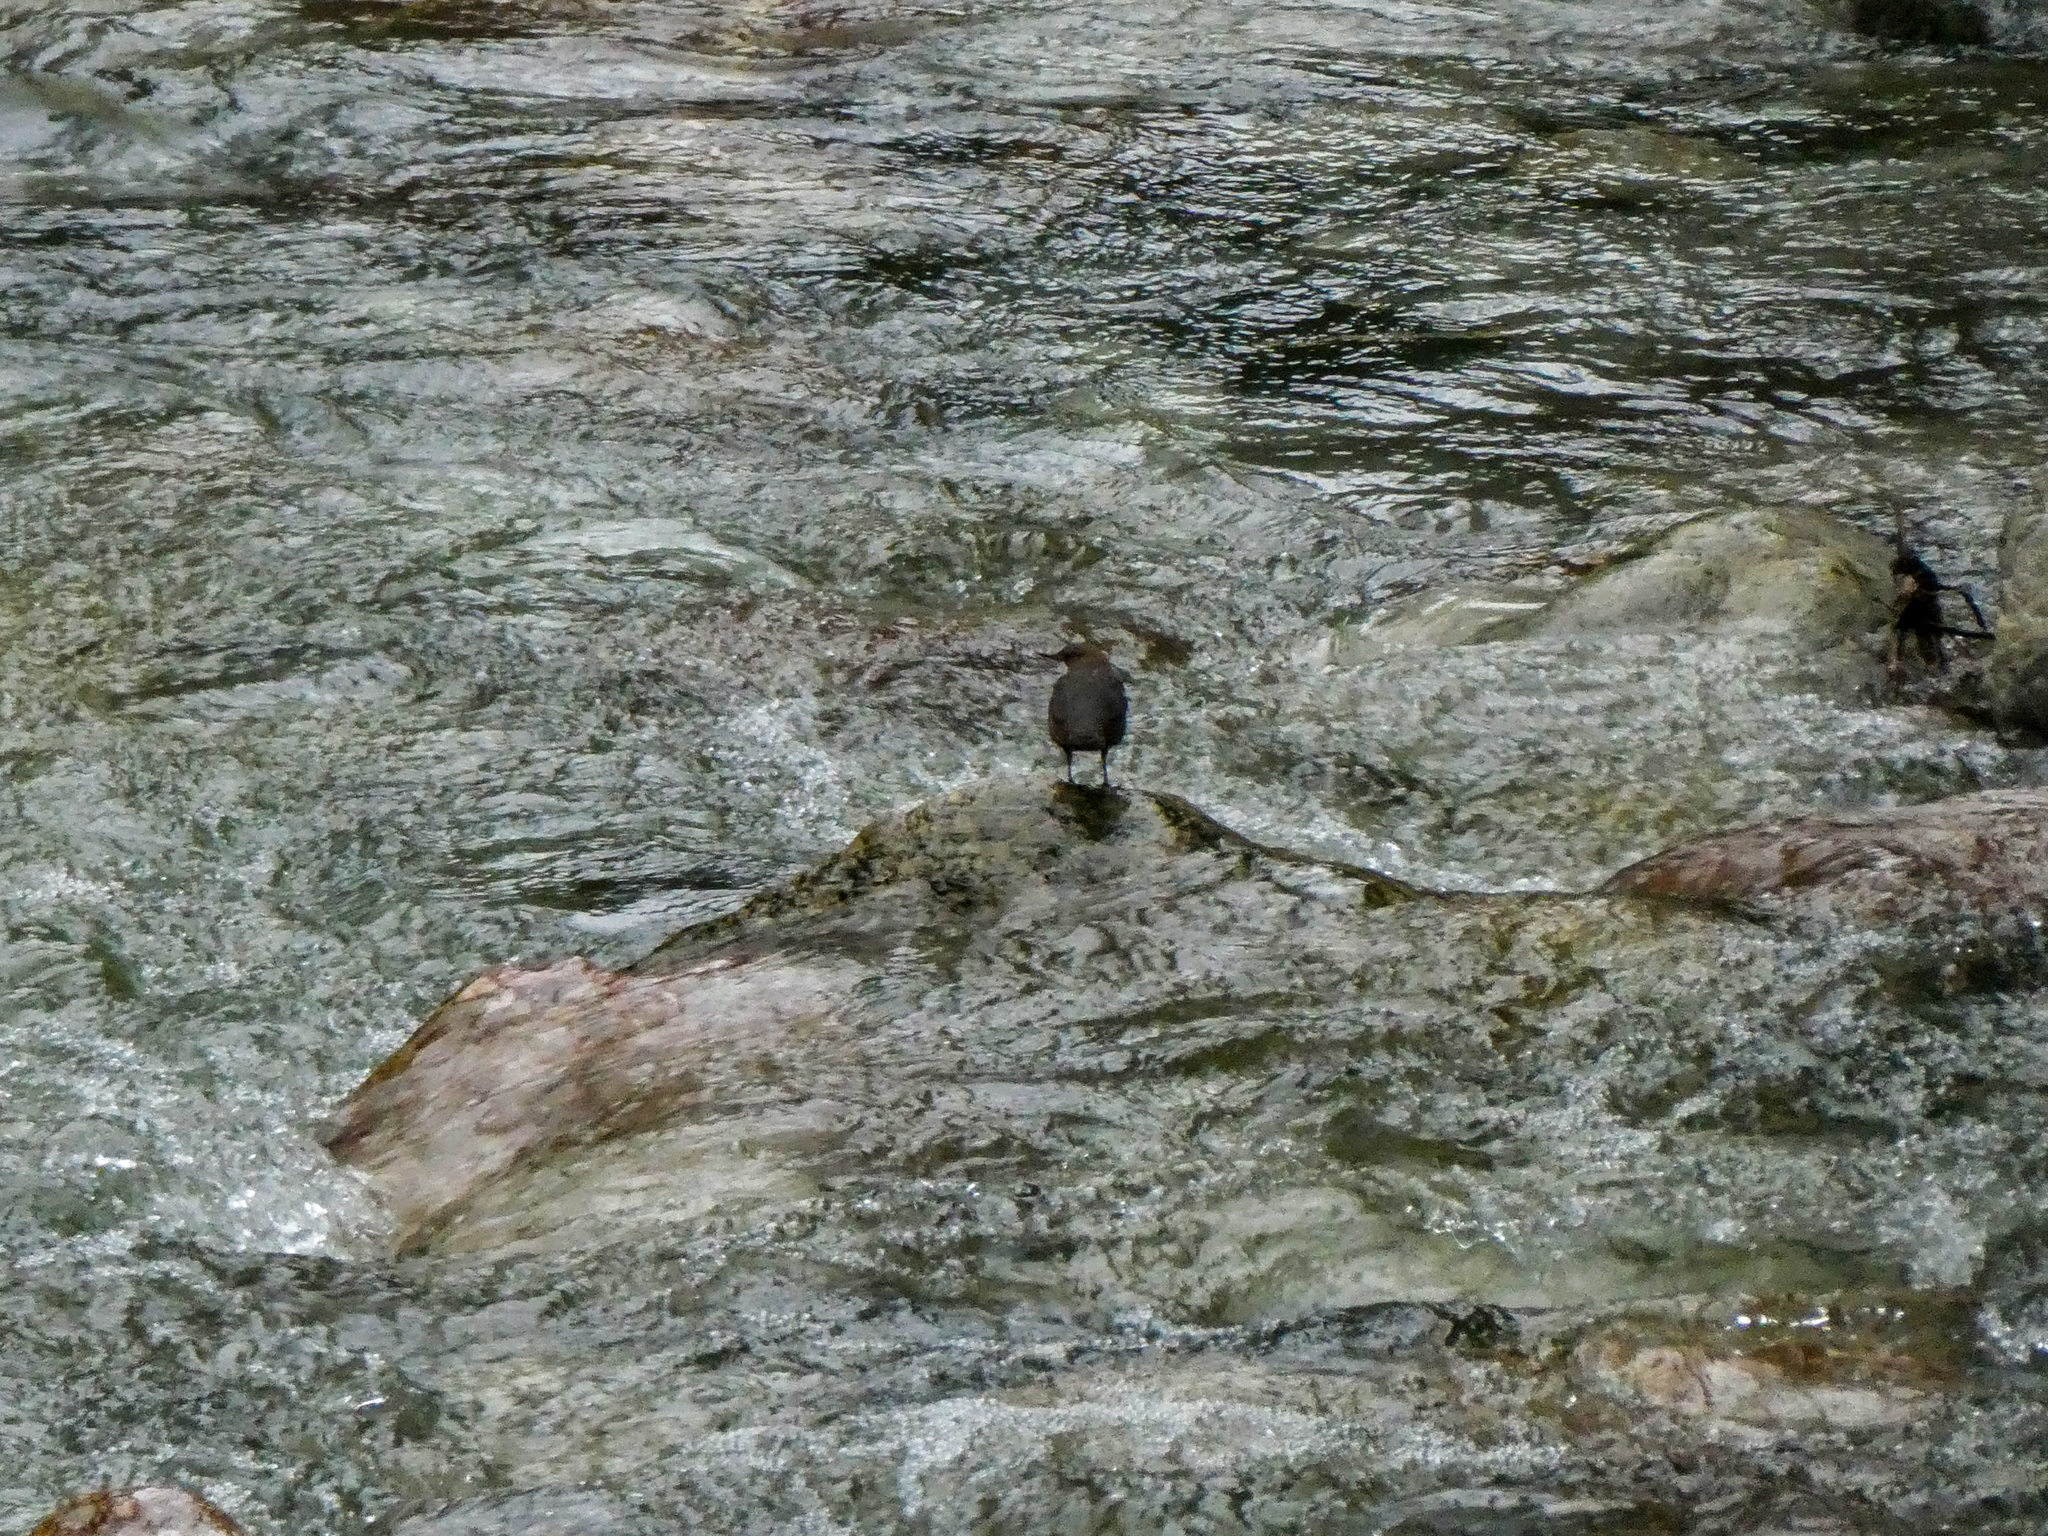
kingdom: Animalia
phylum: Chordata
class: Aves
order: Passeriformes
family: Cinclidae
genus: Cinclus
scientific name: Cinclus cinclus
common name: White-throated dipper
